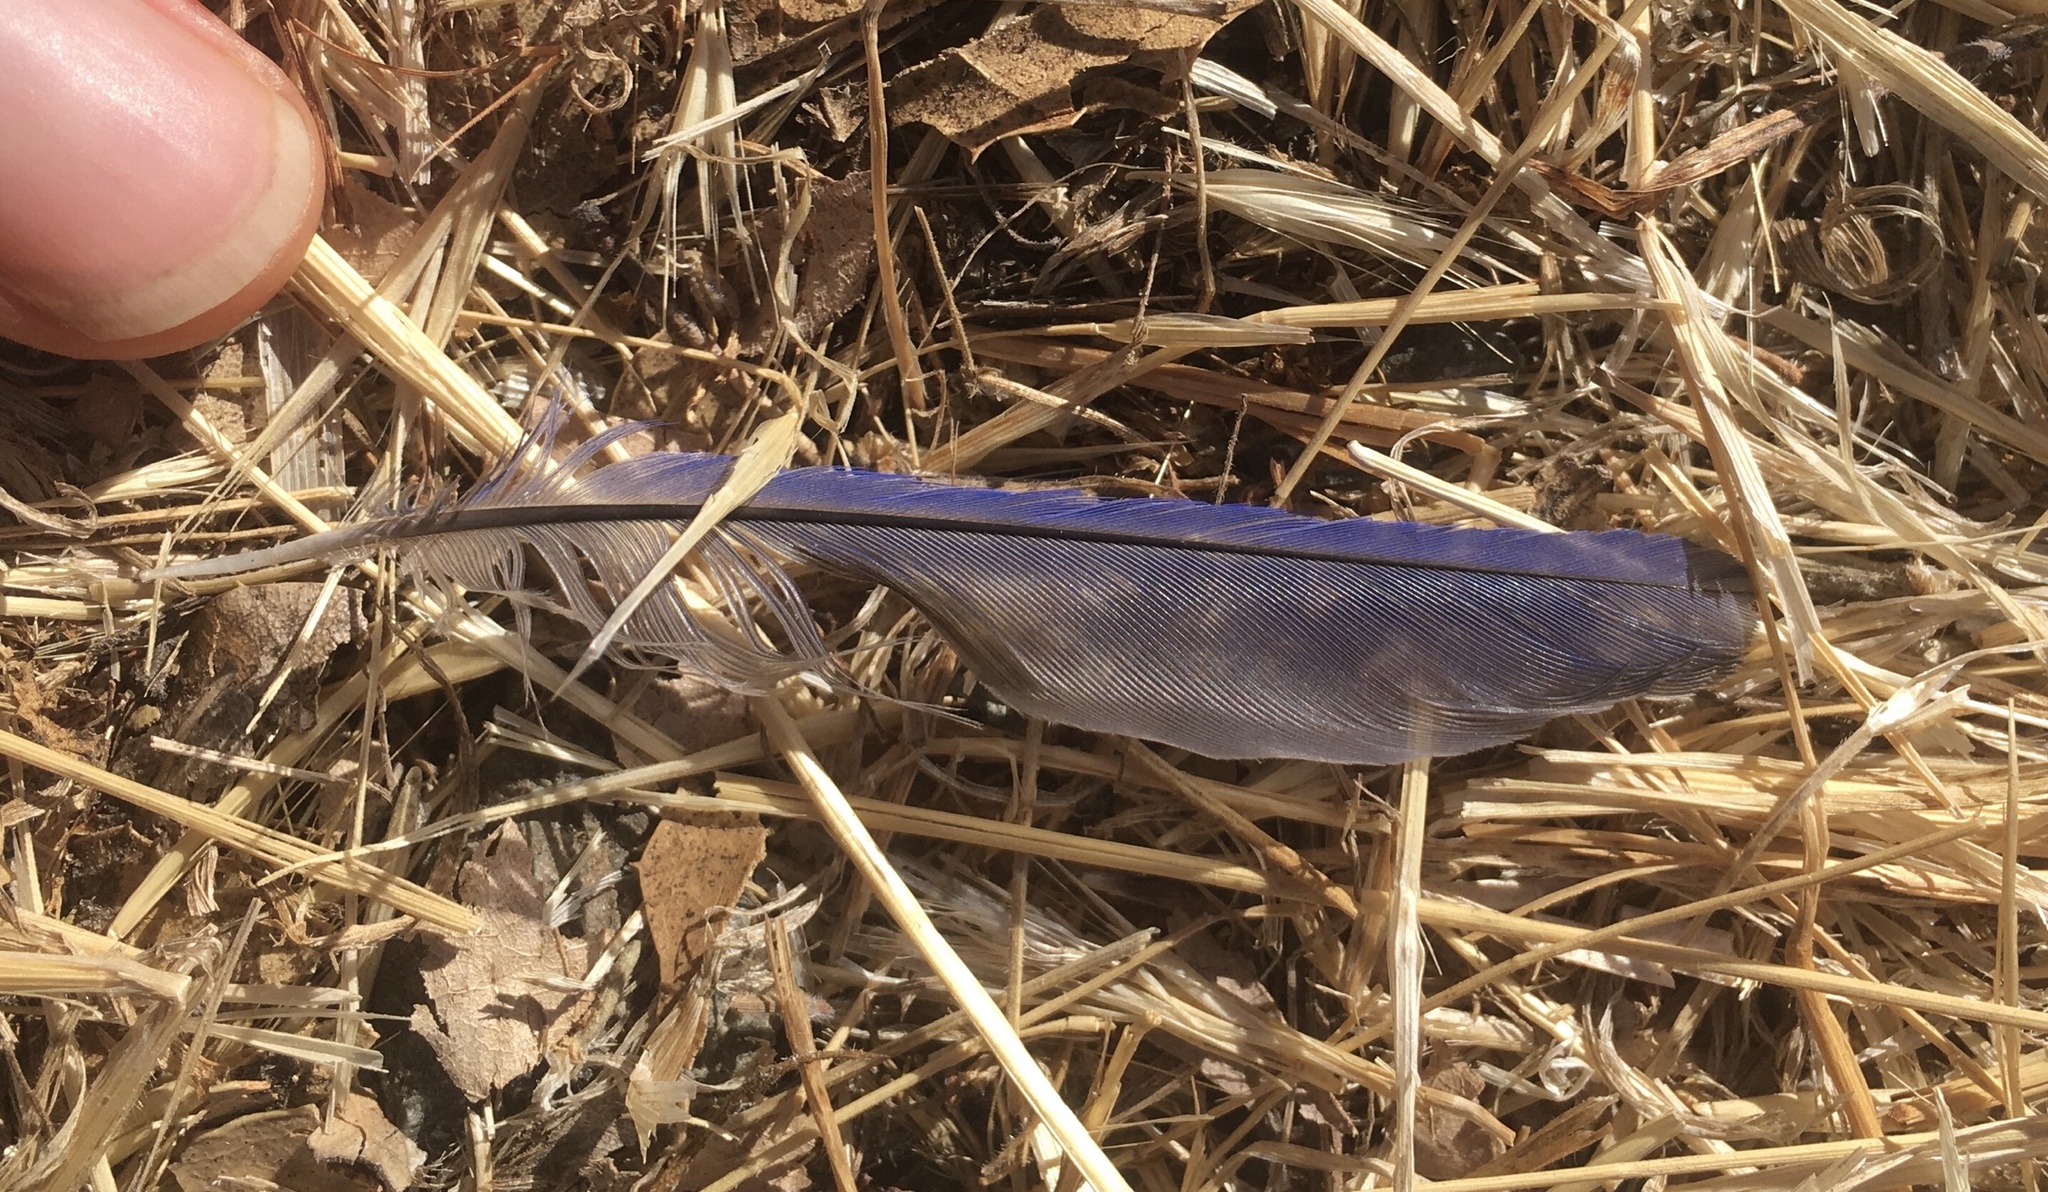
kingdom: Animalia
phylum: Chordata
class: Aves
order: Passeriformes
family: Turdidae
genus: Sialia
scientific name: Sialia mexicana
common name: Western bluebird
